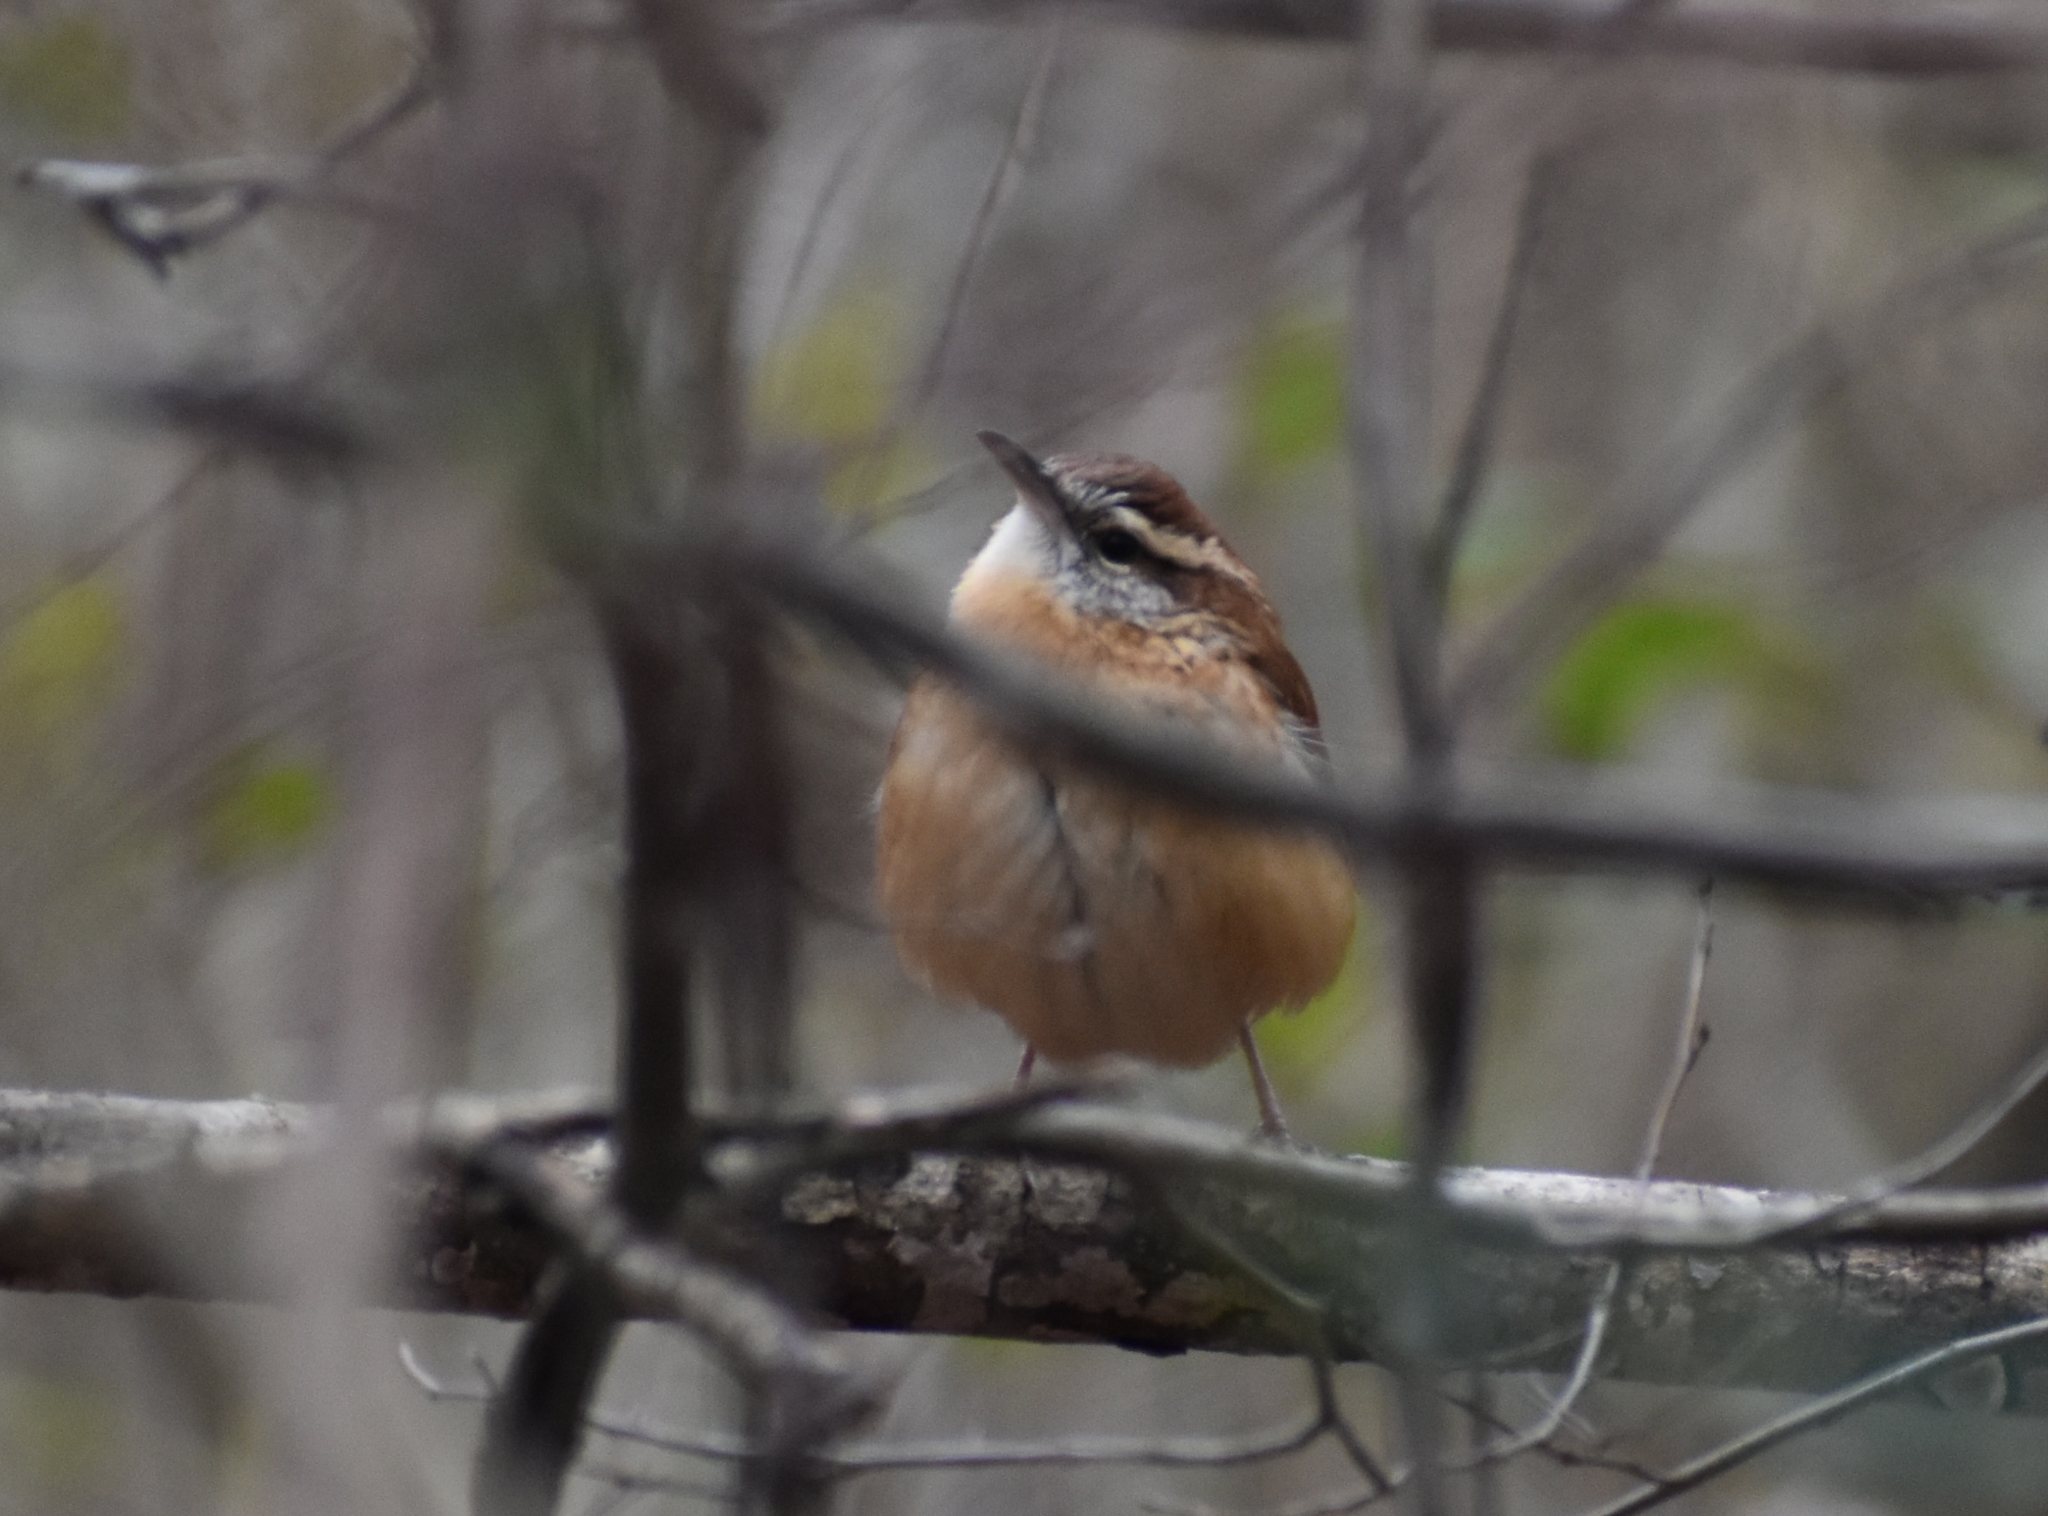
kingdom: Animalia
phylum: Chordata
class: Aves
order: Passeriformes
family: Troglodytidae
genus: Thryothorus
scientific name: Thryothorus ludovicianus
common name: Carolina wren
